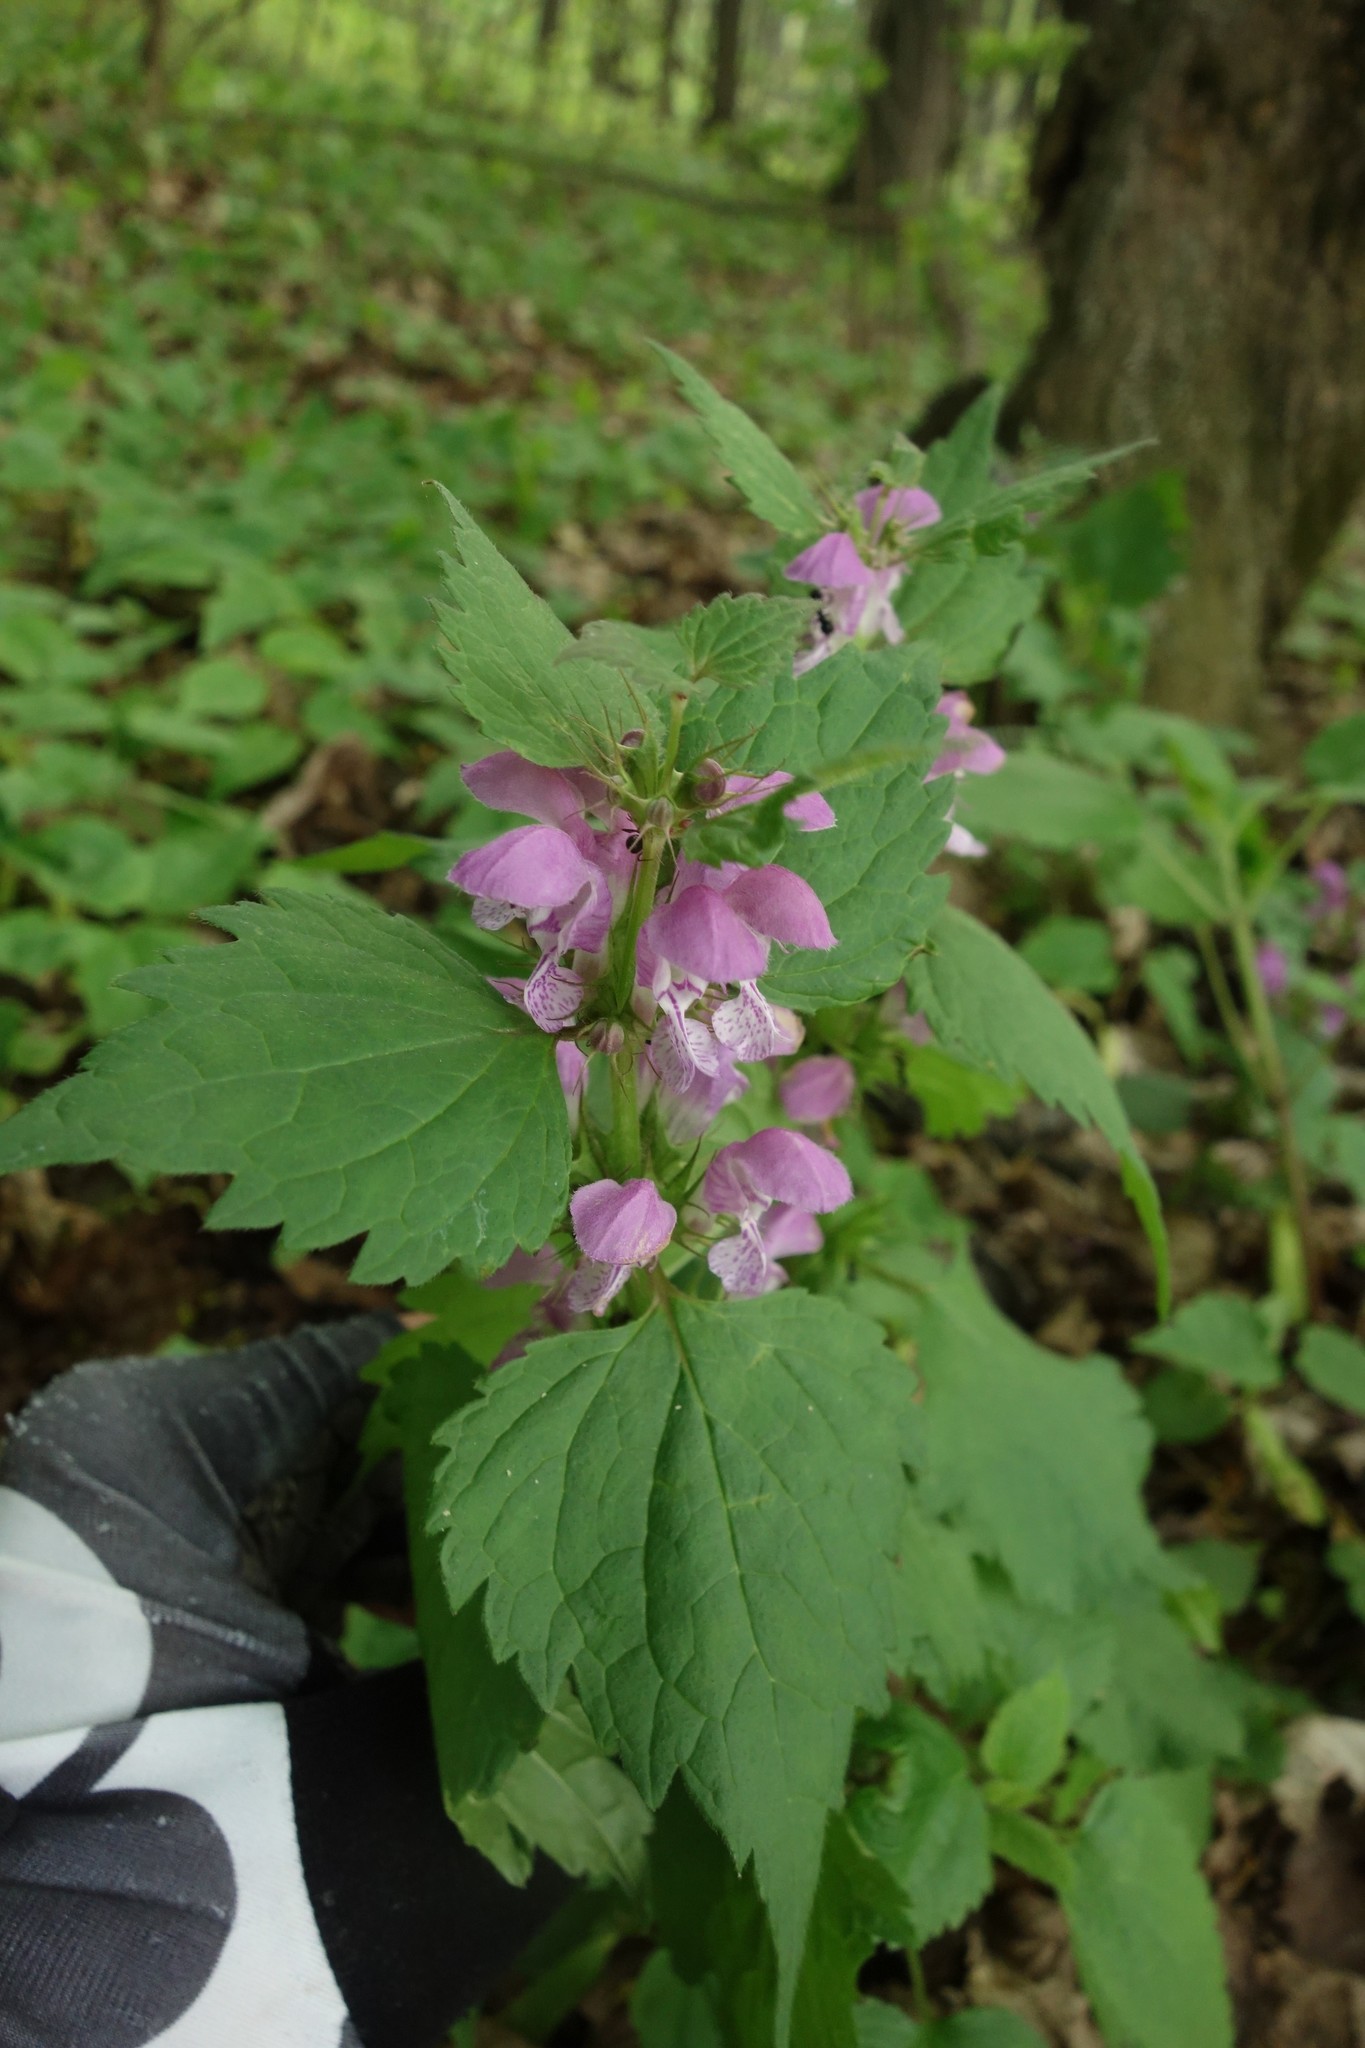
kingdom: Plantae
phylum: Tracheophyta
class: Magnoliopsida
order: Lamiales
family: Lamiaceae
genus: Lamium
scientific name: Lamium maculatum
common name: Spotted dead-nettle
